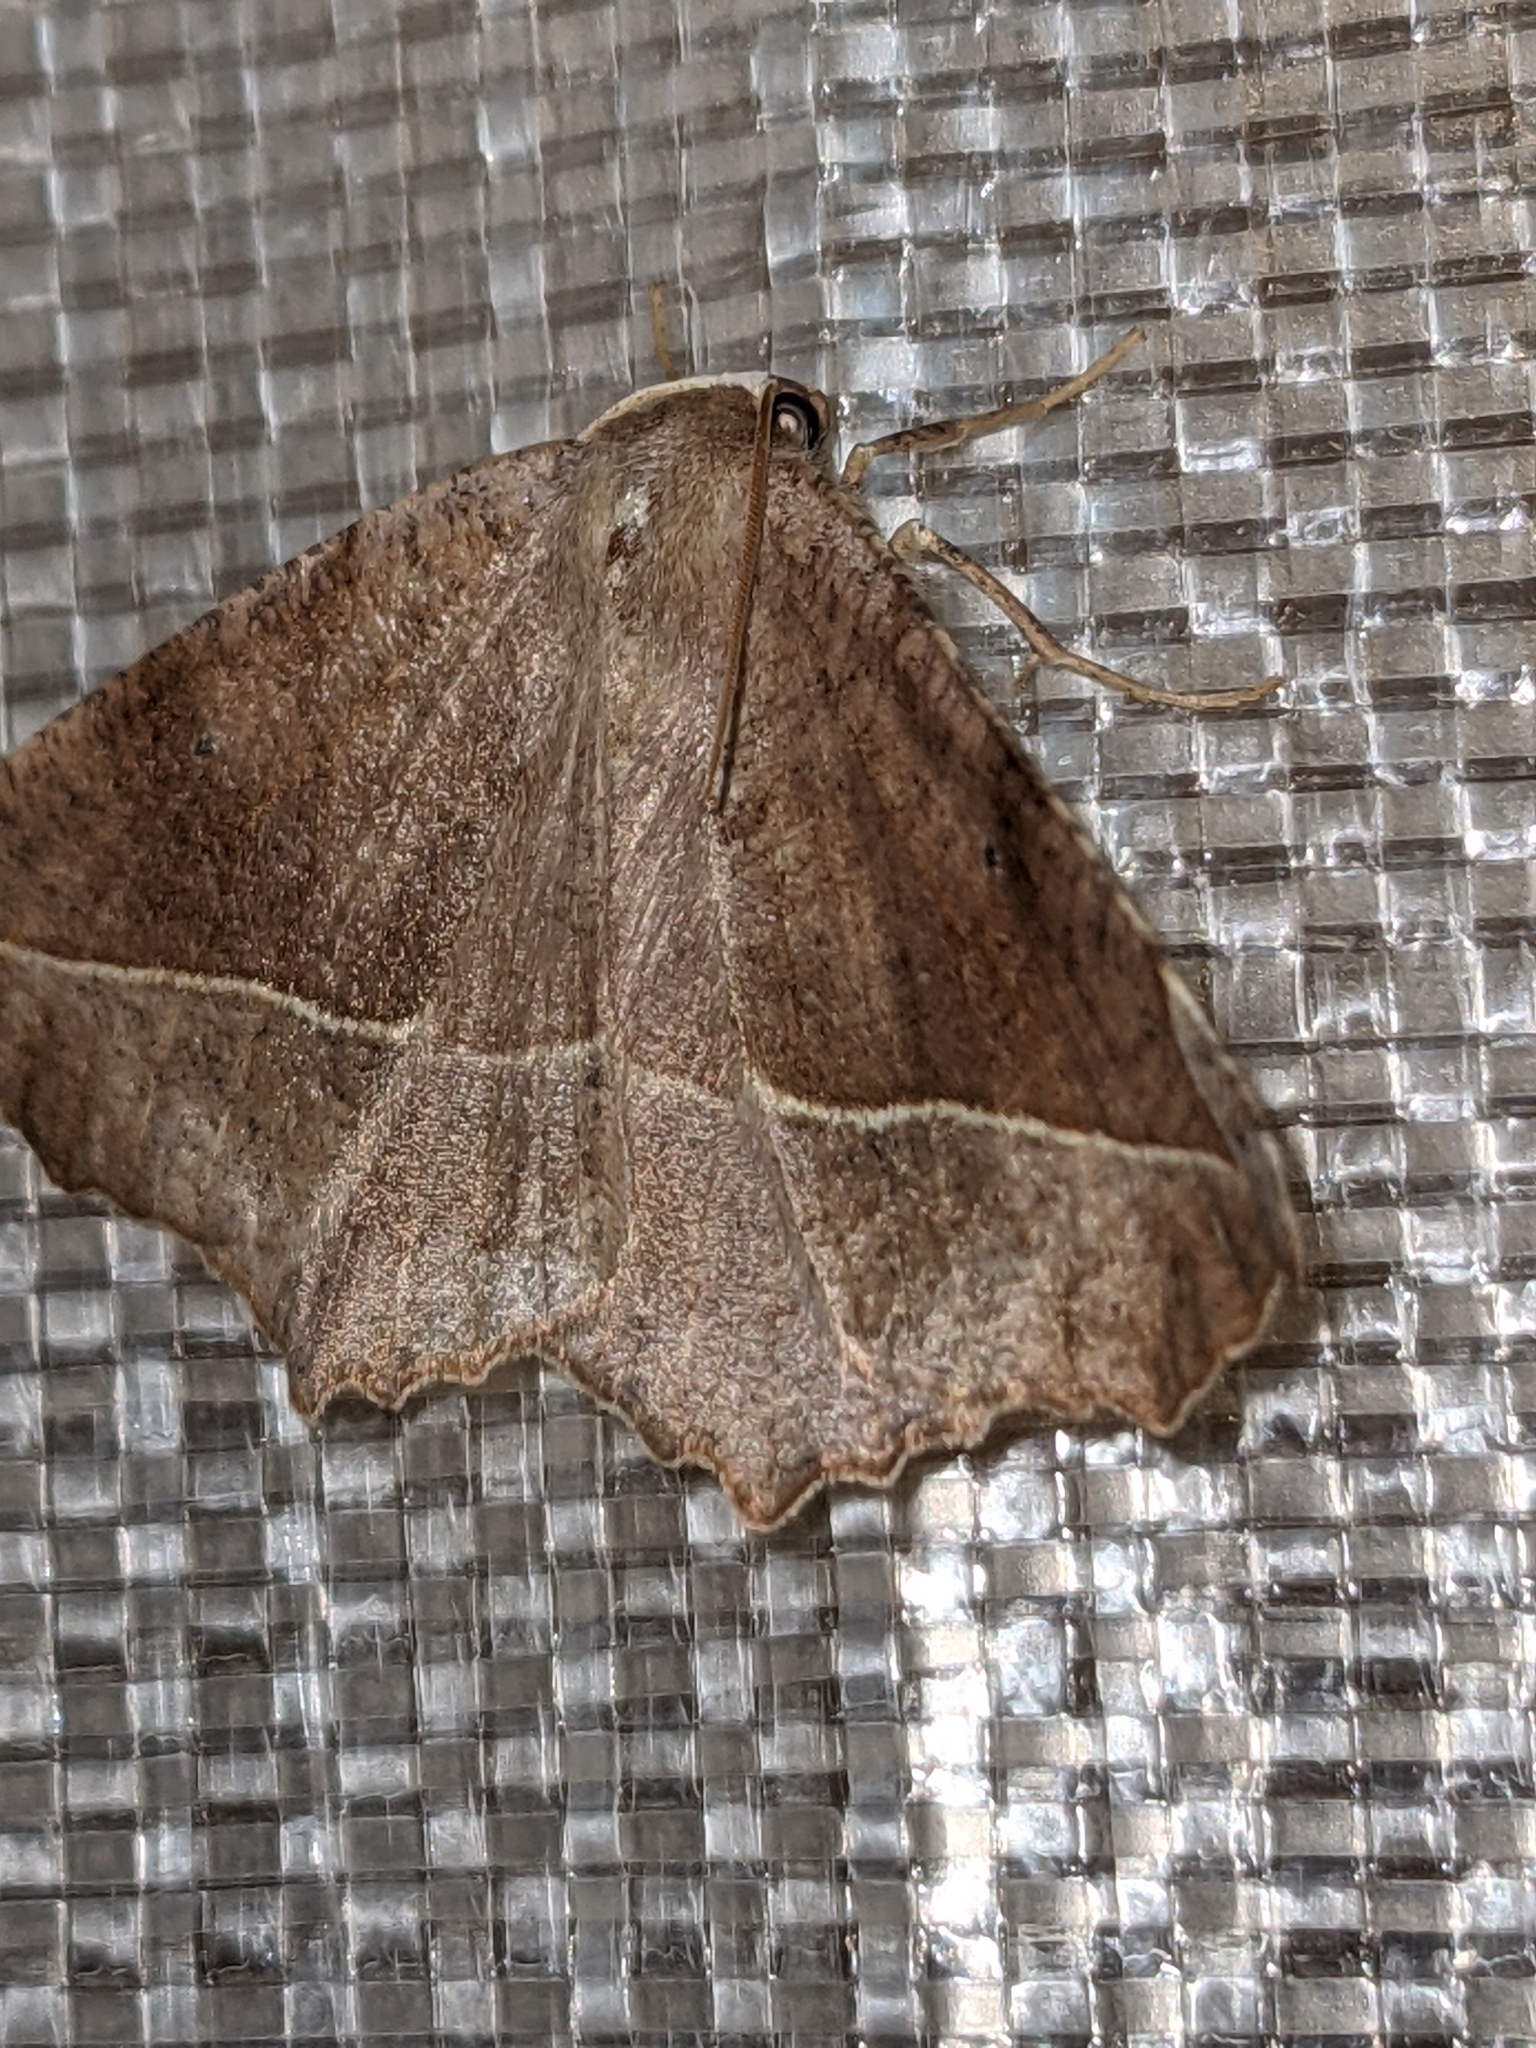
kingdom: Animalia
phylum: Arthropoda
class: Insecta
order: Lepidoptera
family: Geometridae
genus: Eutrapela
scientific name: Eutrapela clemataria
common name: Curved-toothed geometer
